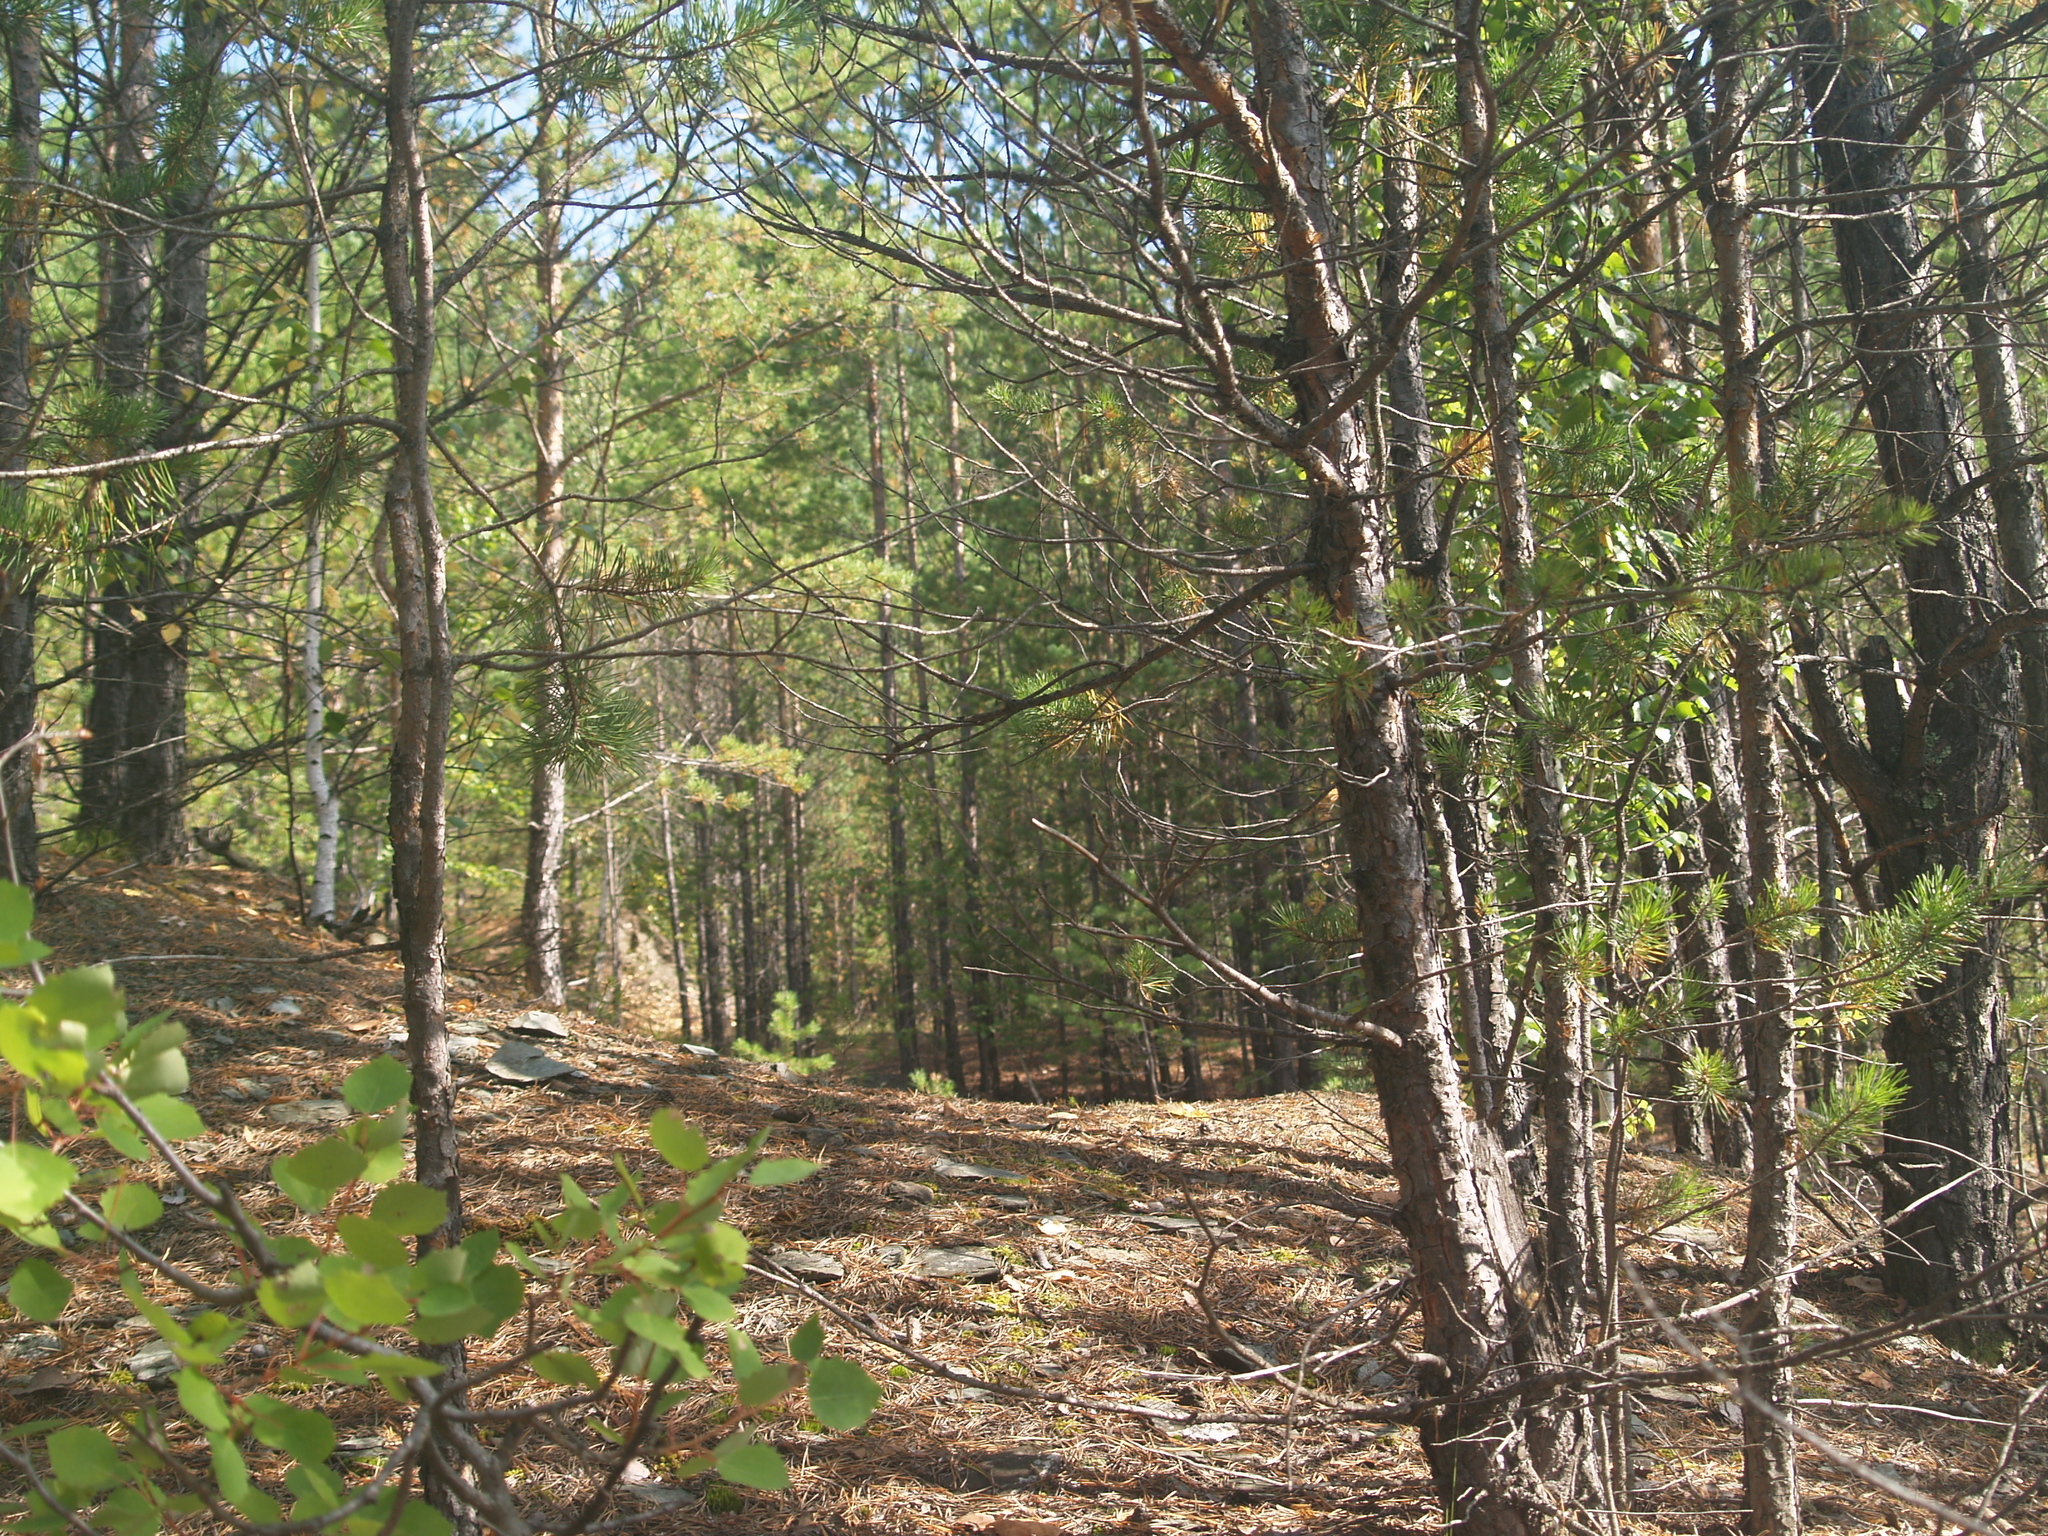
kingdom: Plantae
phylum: Tracheophyta
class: Pinopsida
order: Pinales
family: Pinaceae
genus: Pinus
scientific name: Pinus sylvestris
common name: Scots pine
